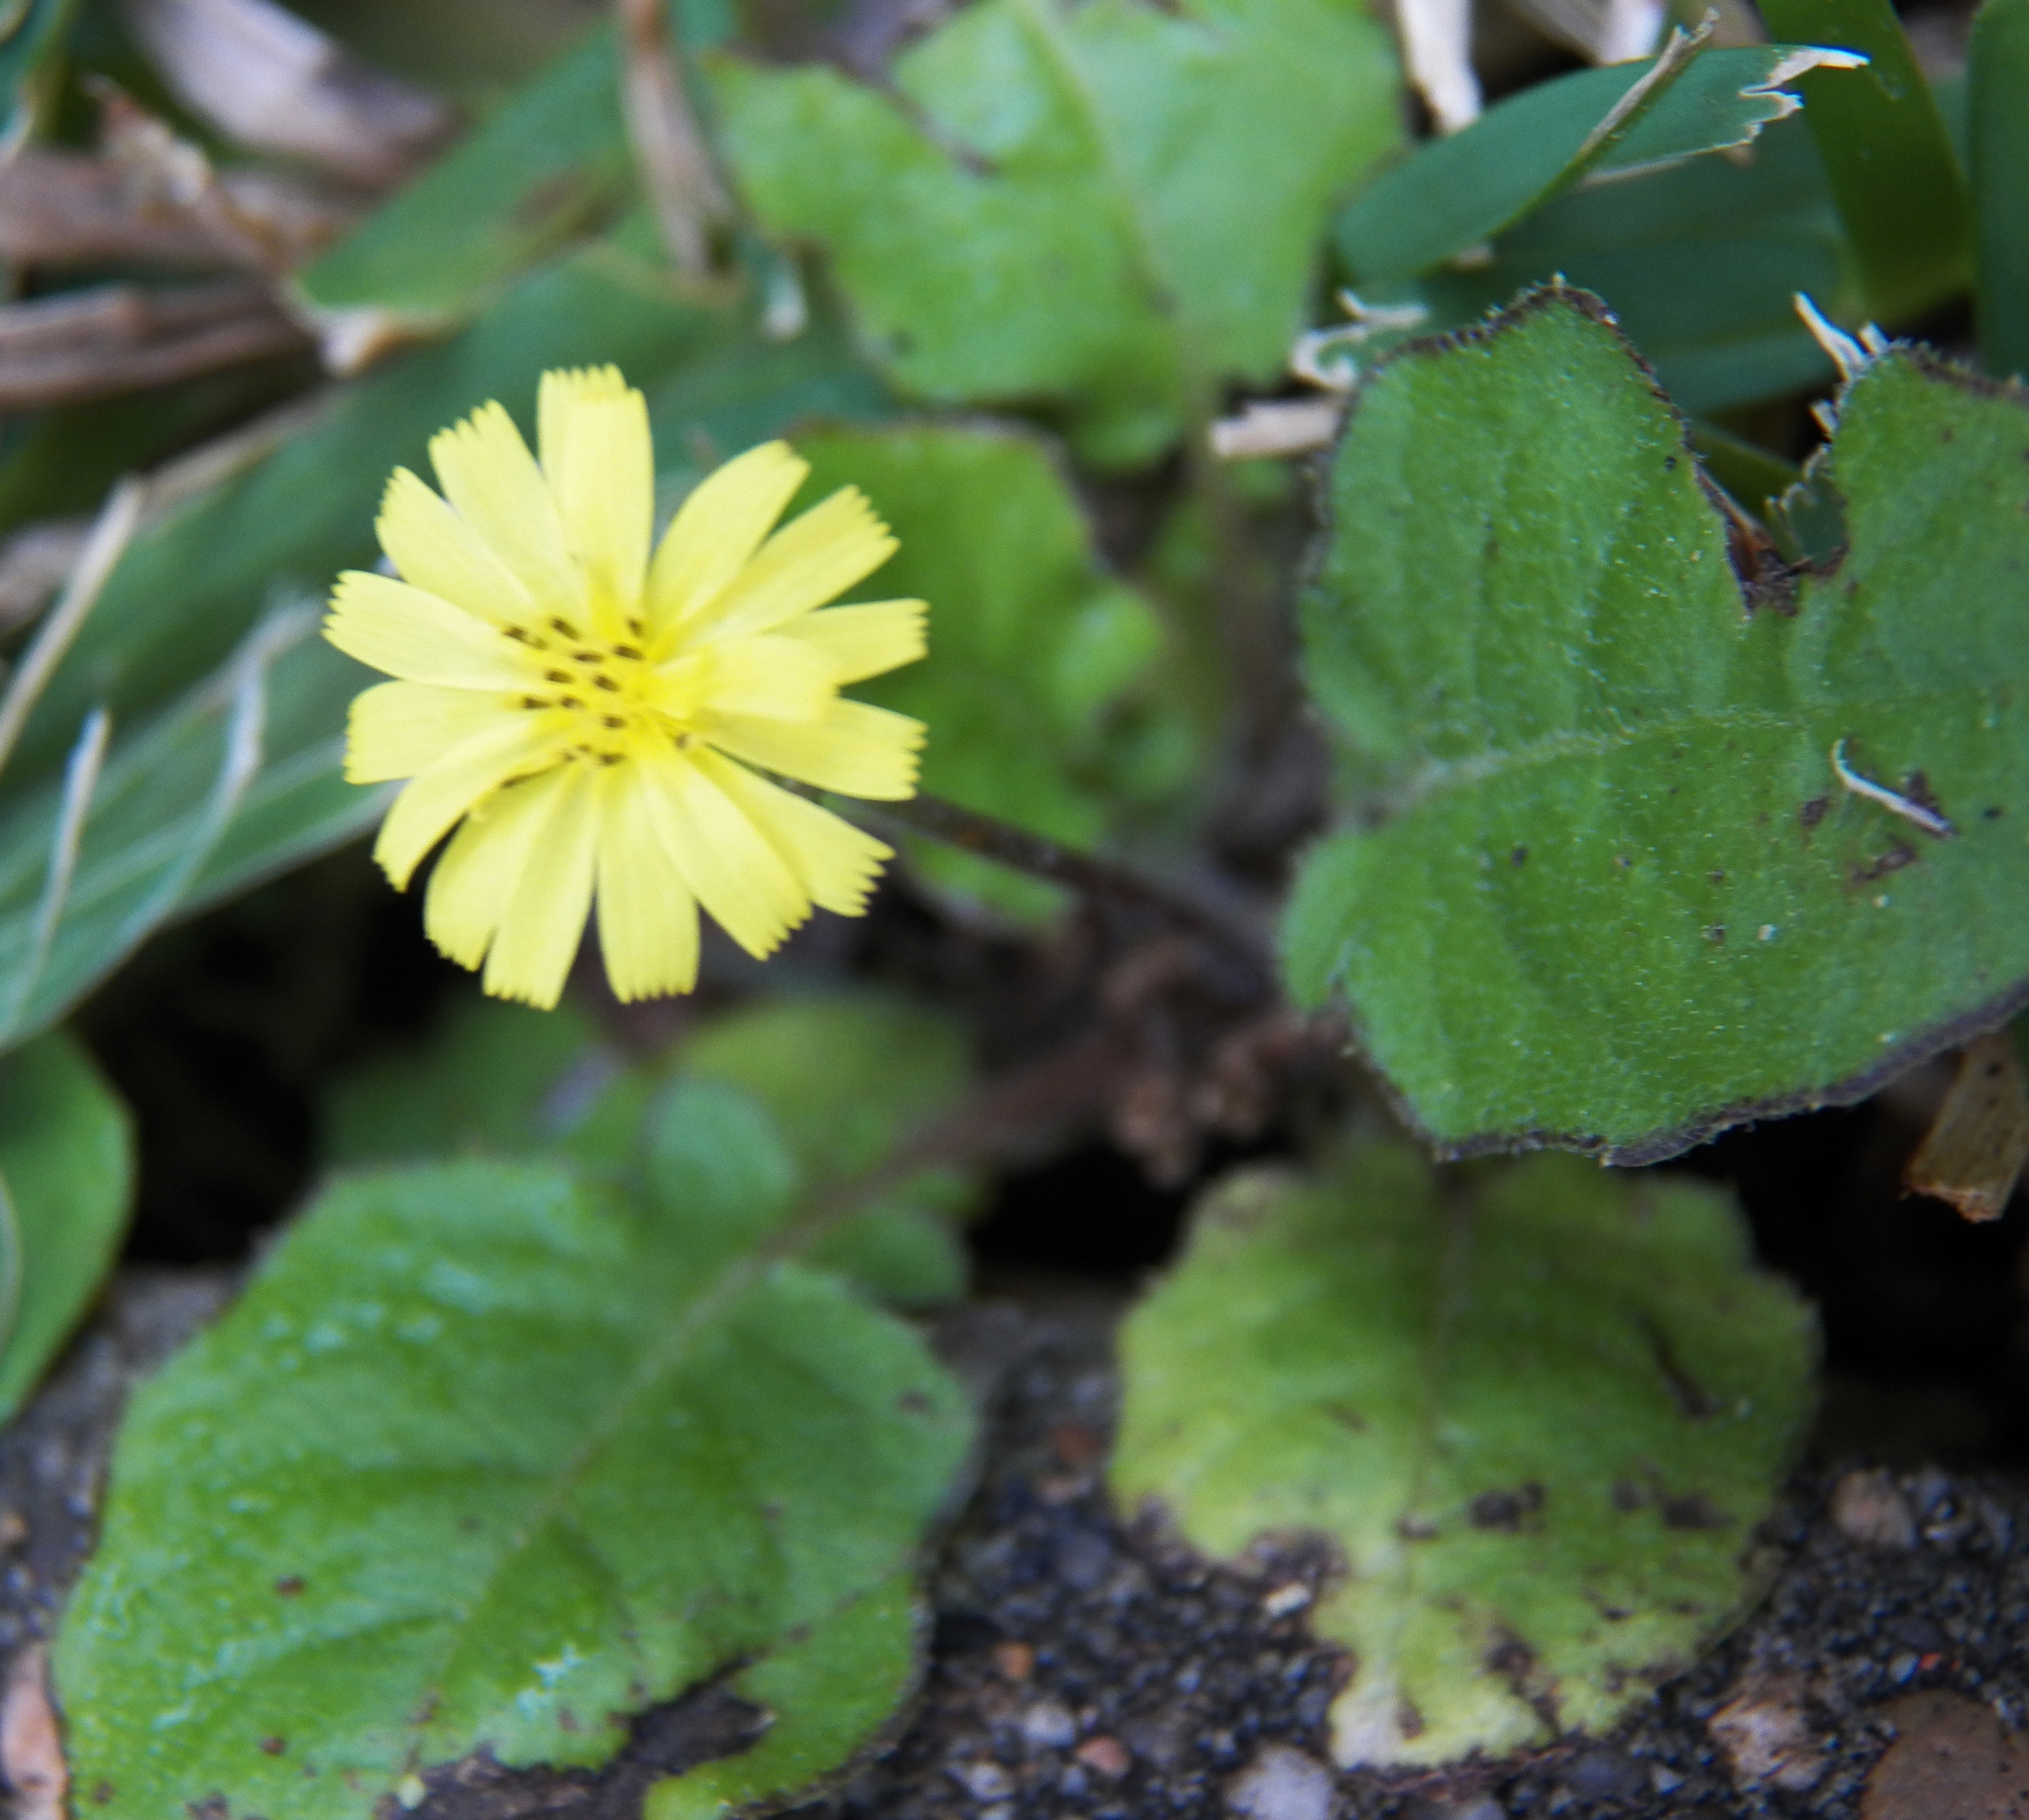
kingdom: Plantae
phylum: Tracheophyta
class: Magnoliopsida
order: Asterales
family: Asteraceae
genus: Youngia
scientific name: Youngia japonica
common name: Oriental false hawksbeard
